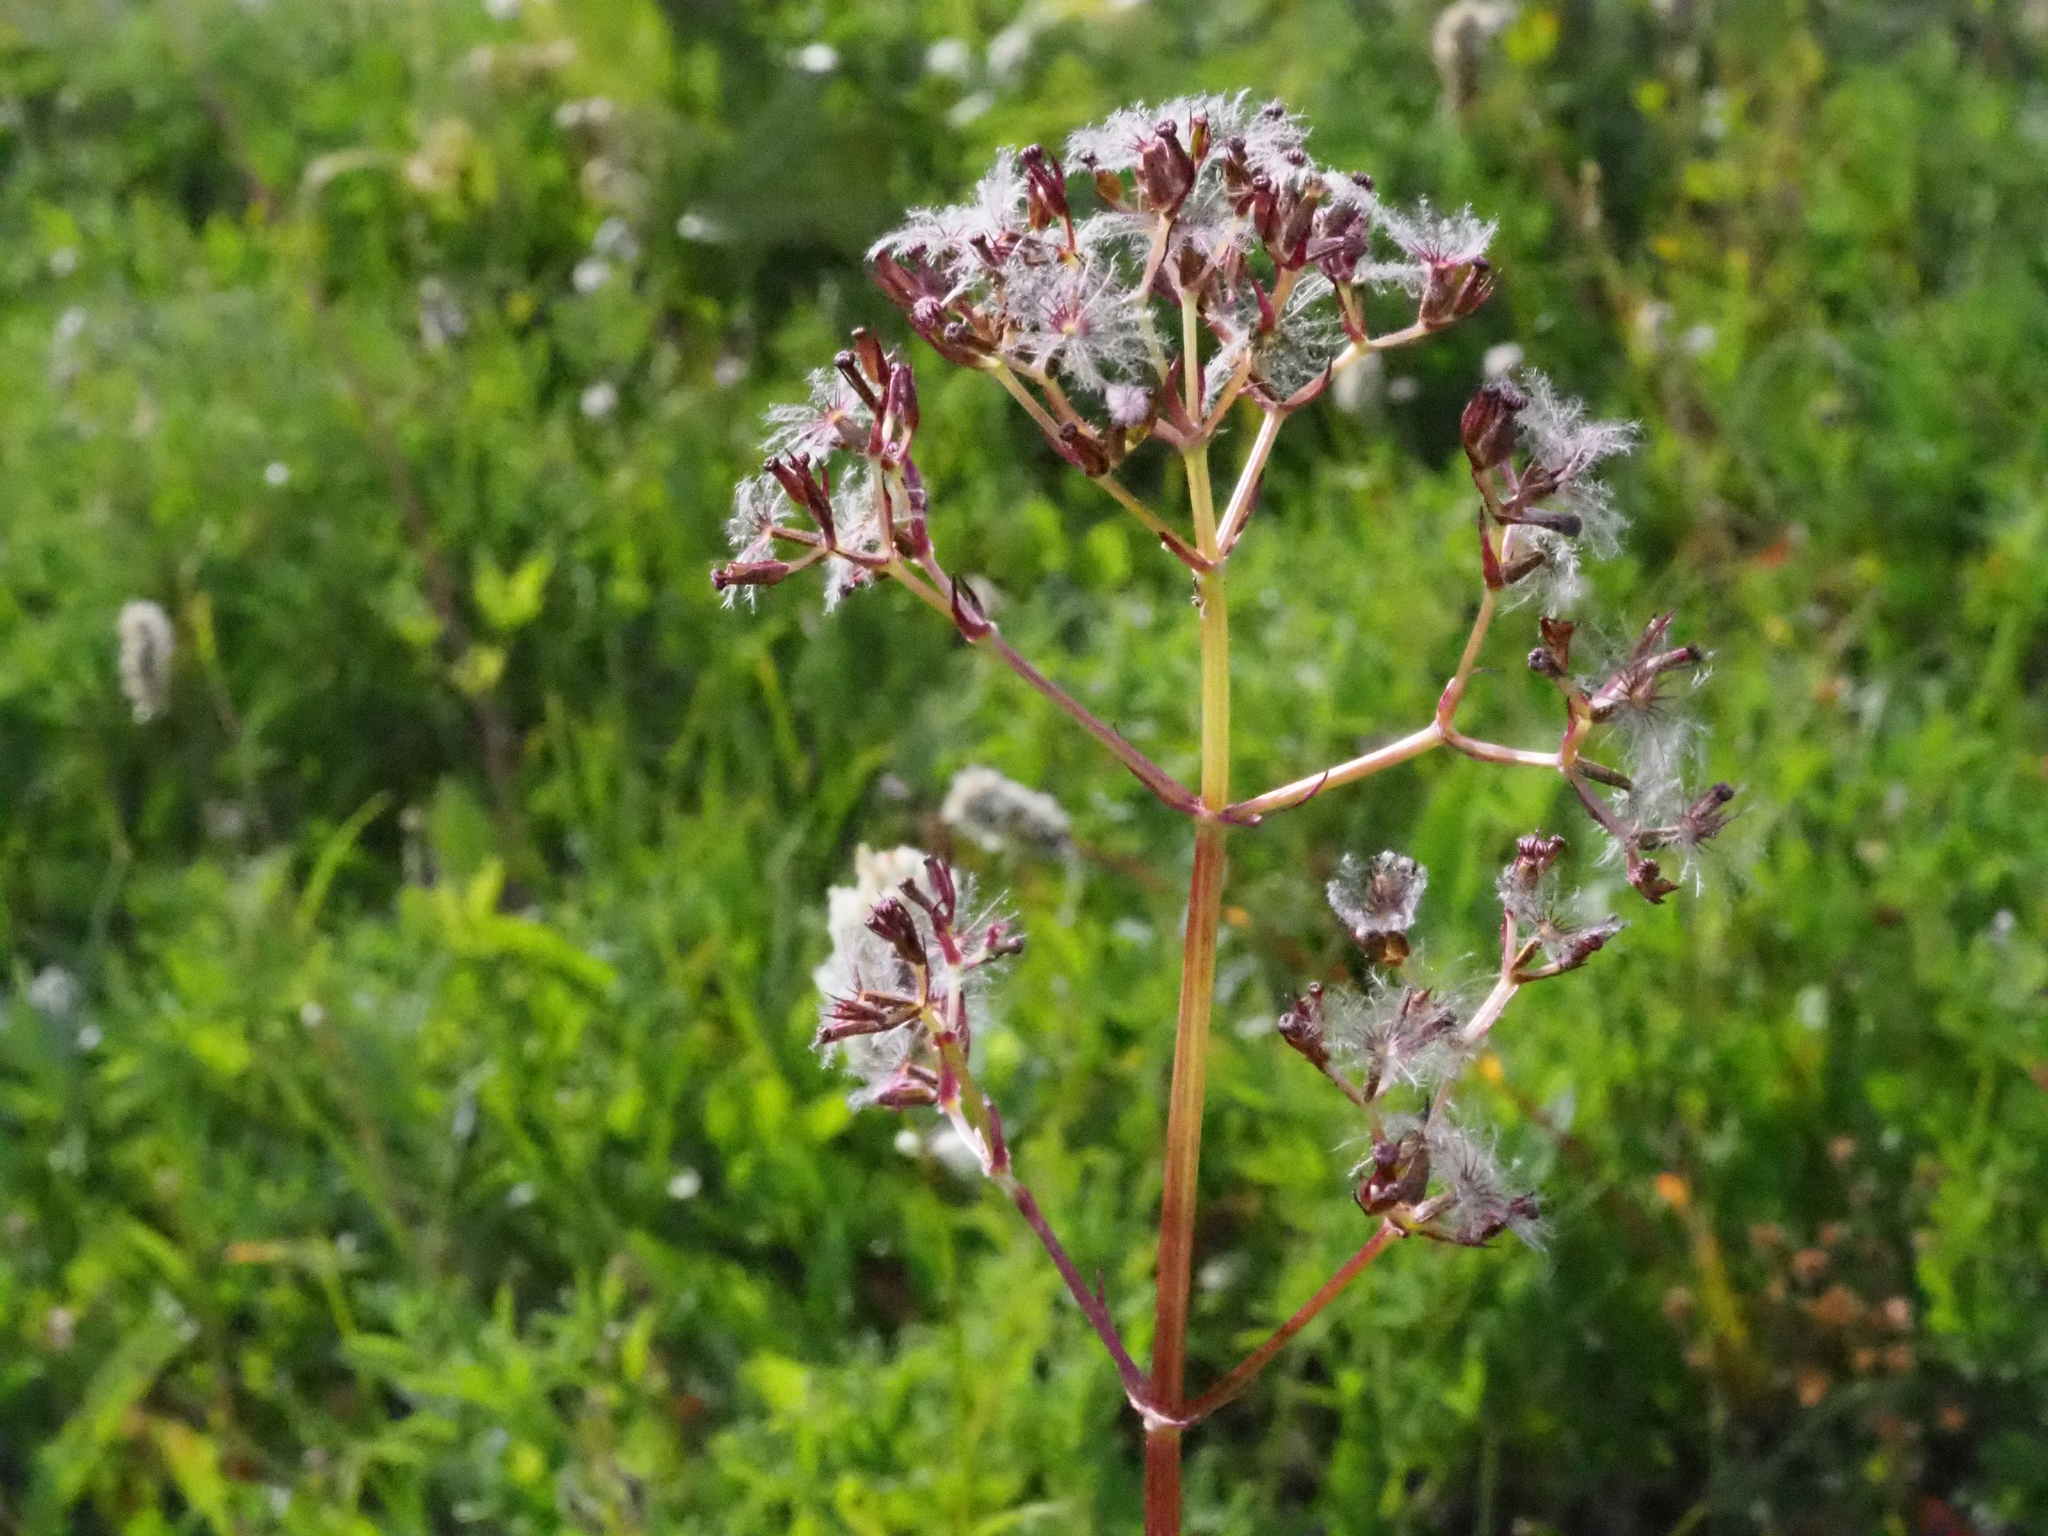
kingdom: Plantae
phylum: Tracheophyta
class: Magnoliopsida
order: Dipsacales
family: Caprifoliaceae
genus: Valeriana
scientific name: Valeriana sitchensis
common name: Pacific valerian
